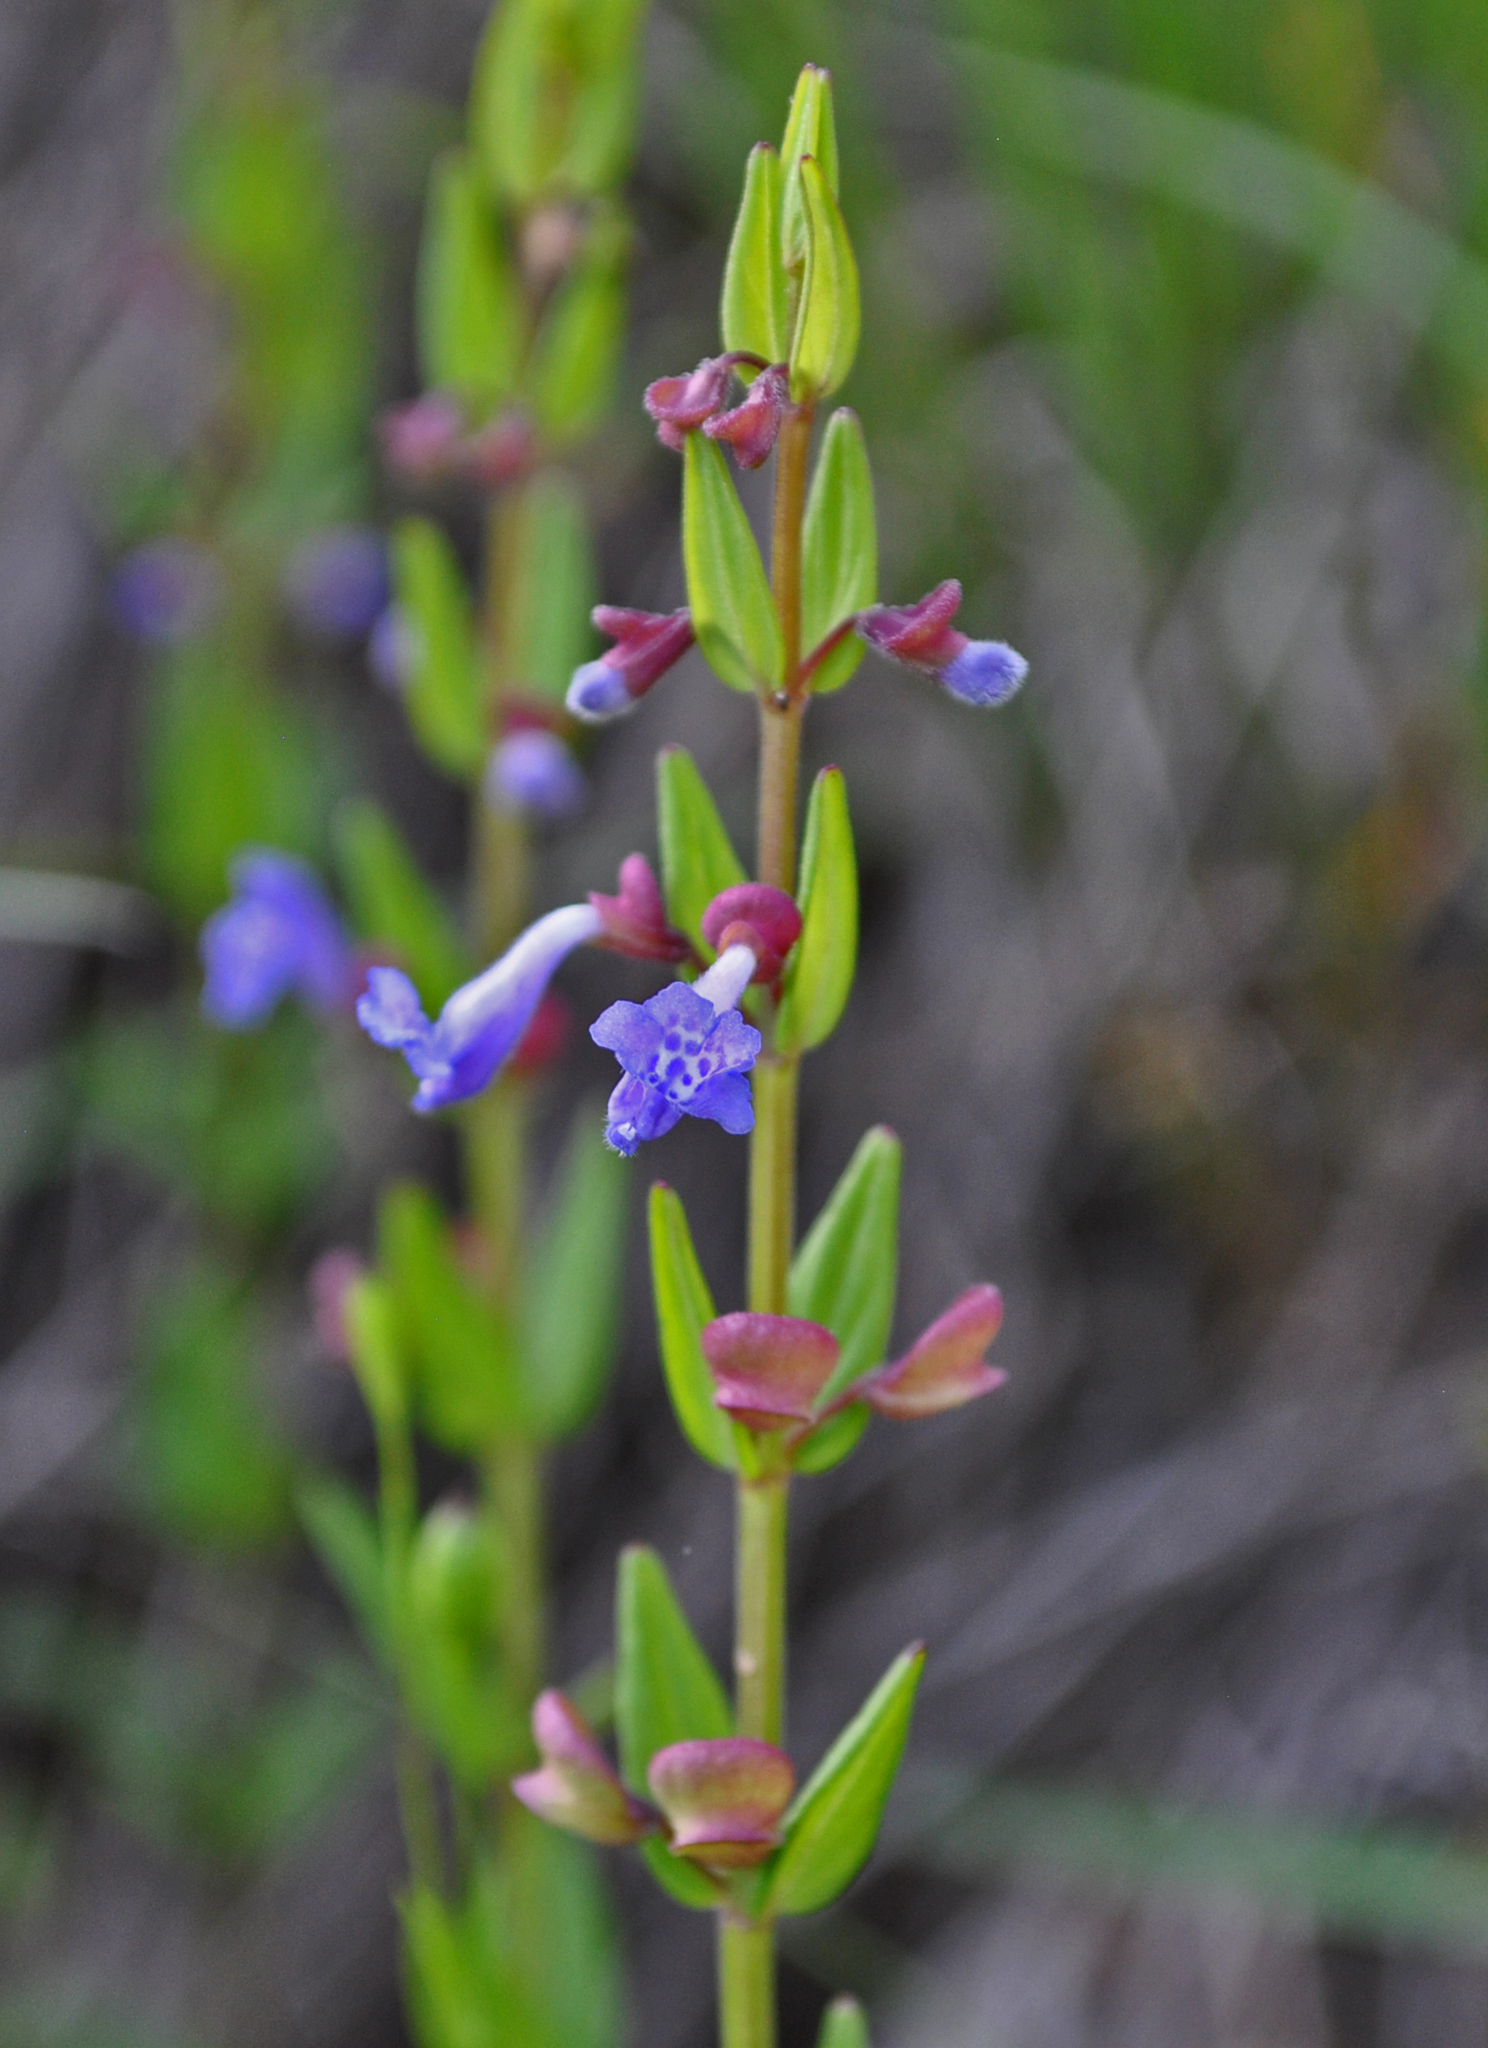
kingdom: Plantae
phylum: Tracheophyta
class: Magnoliopsida
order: Lamiales
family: Lamiaceae
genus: Scutellaria
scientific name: Scutellaria parvula
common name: Little scullcap
